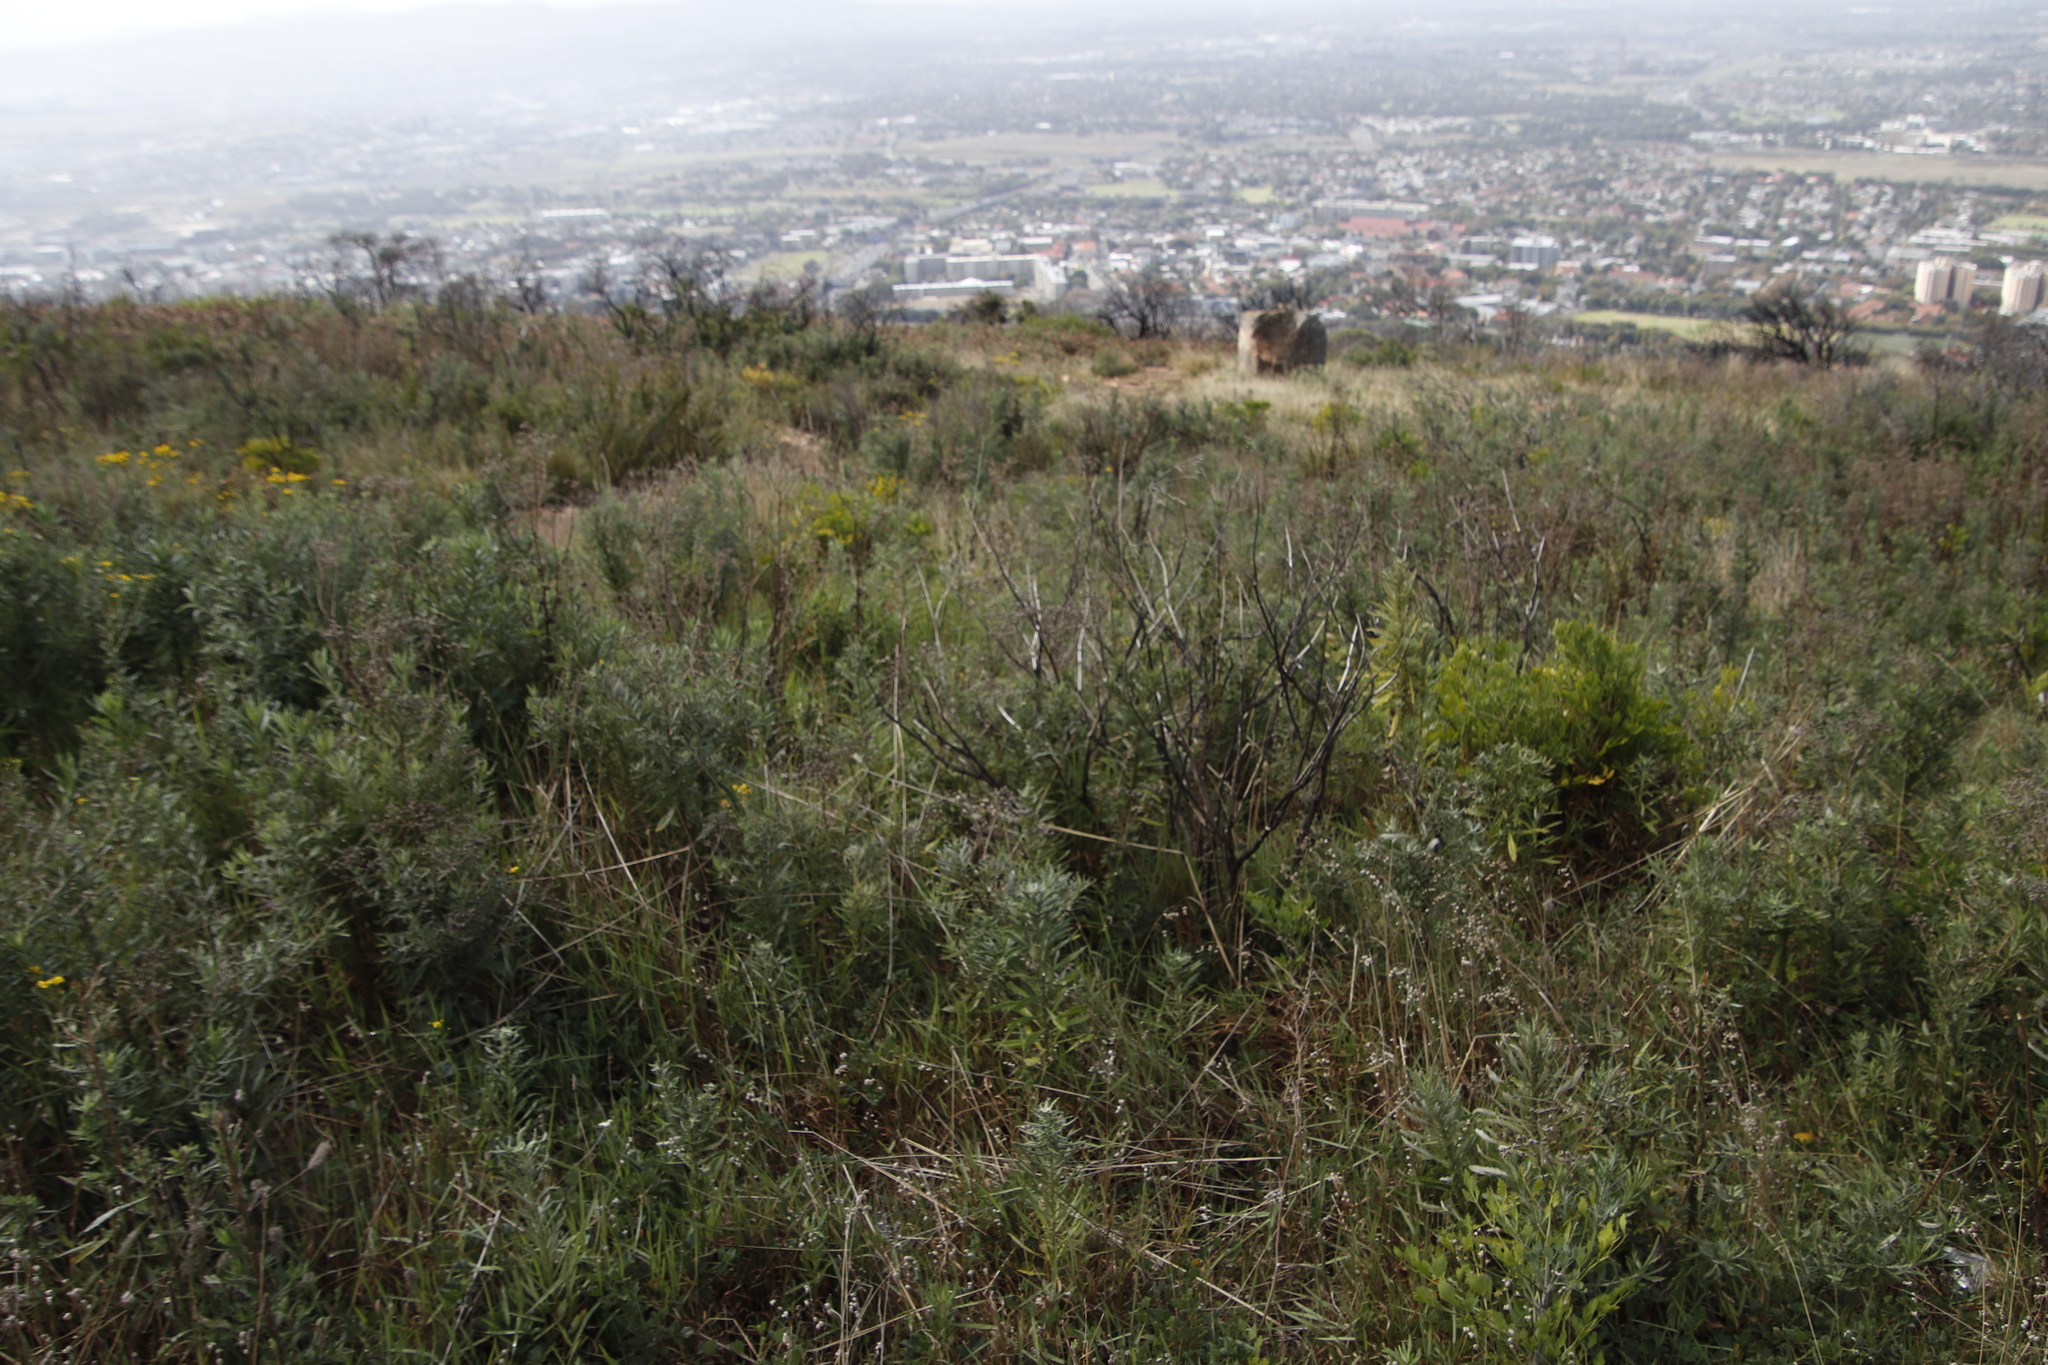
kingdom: Plantae
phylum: Tracheophyta
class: Magnoliopsida
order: Asterales
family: Asteraceae
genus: Senecio
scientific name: Senecio pterophorus
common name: Shoddy ragwort
